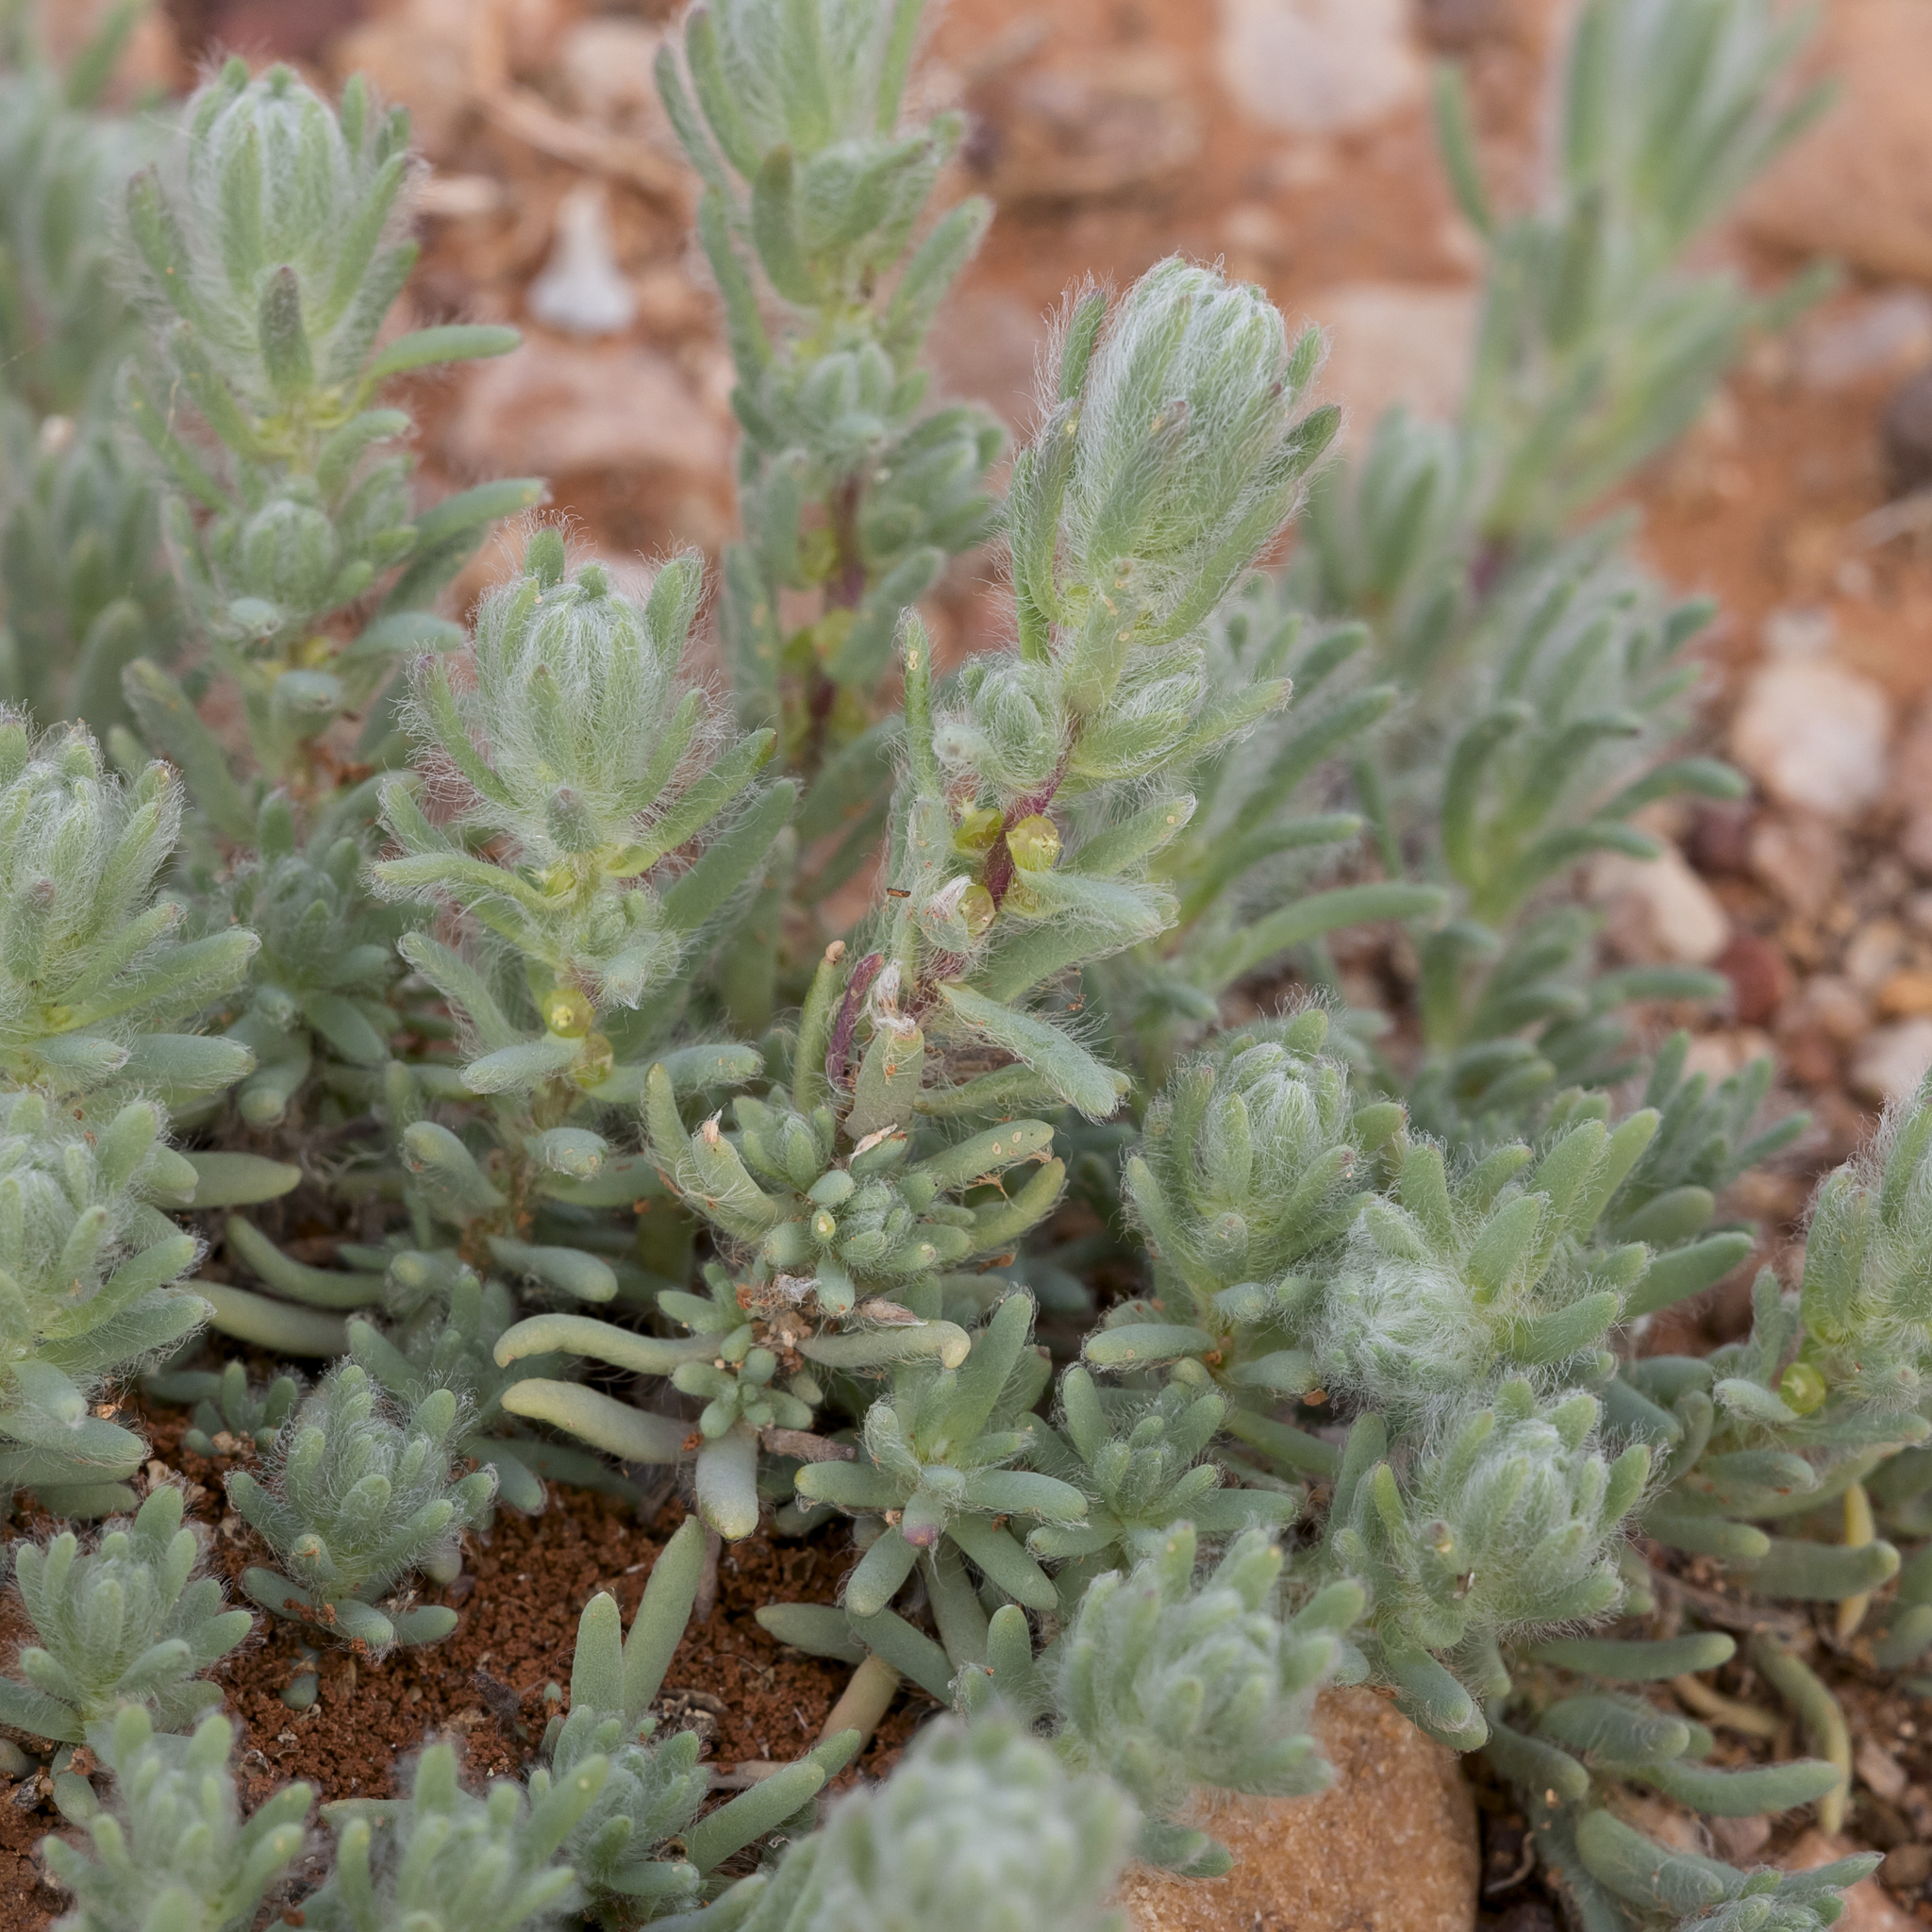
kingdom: Plantae
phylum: Tracheophyta
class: Magnoliopsida
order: Caryophyllales
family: Amaranthaceae
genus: Sclerolaena
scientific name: Sclerolaena brachyptera
